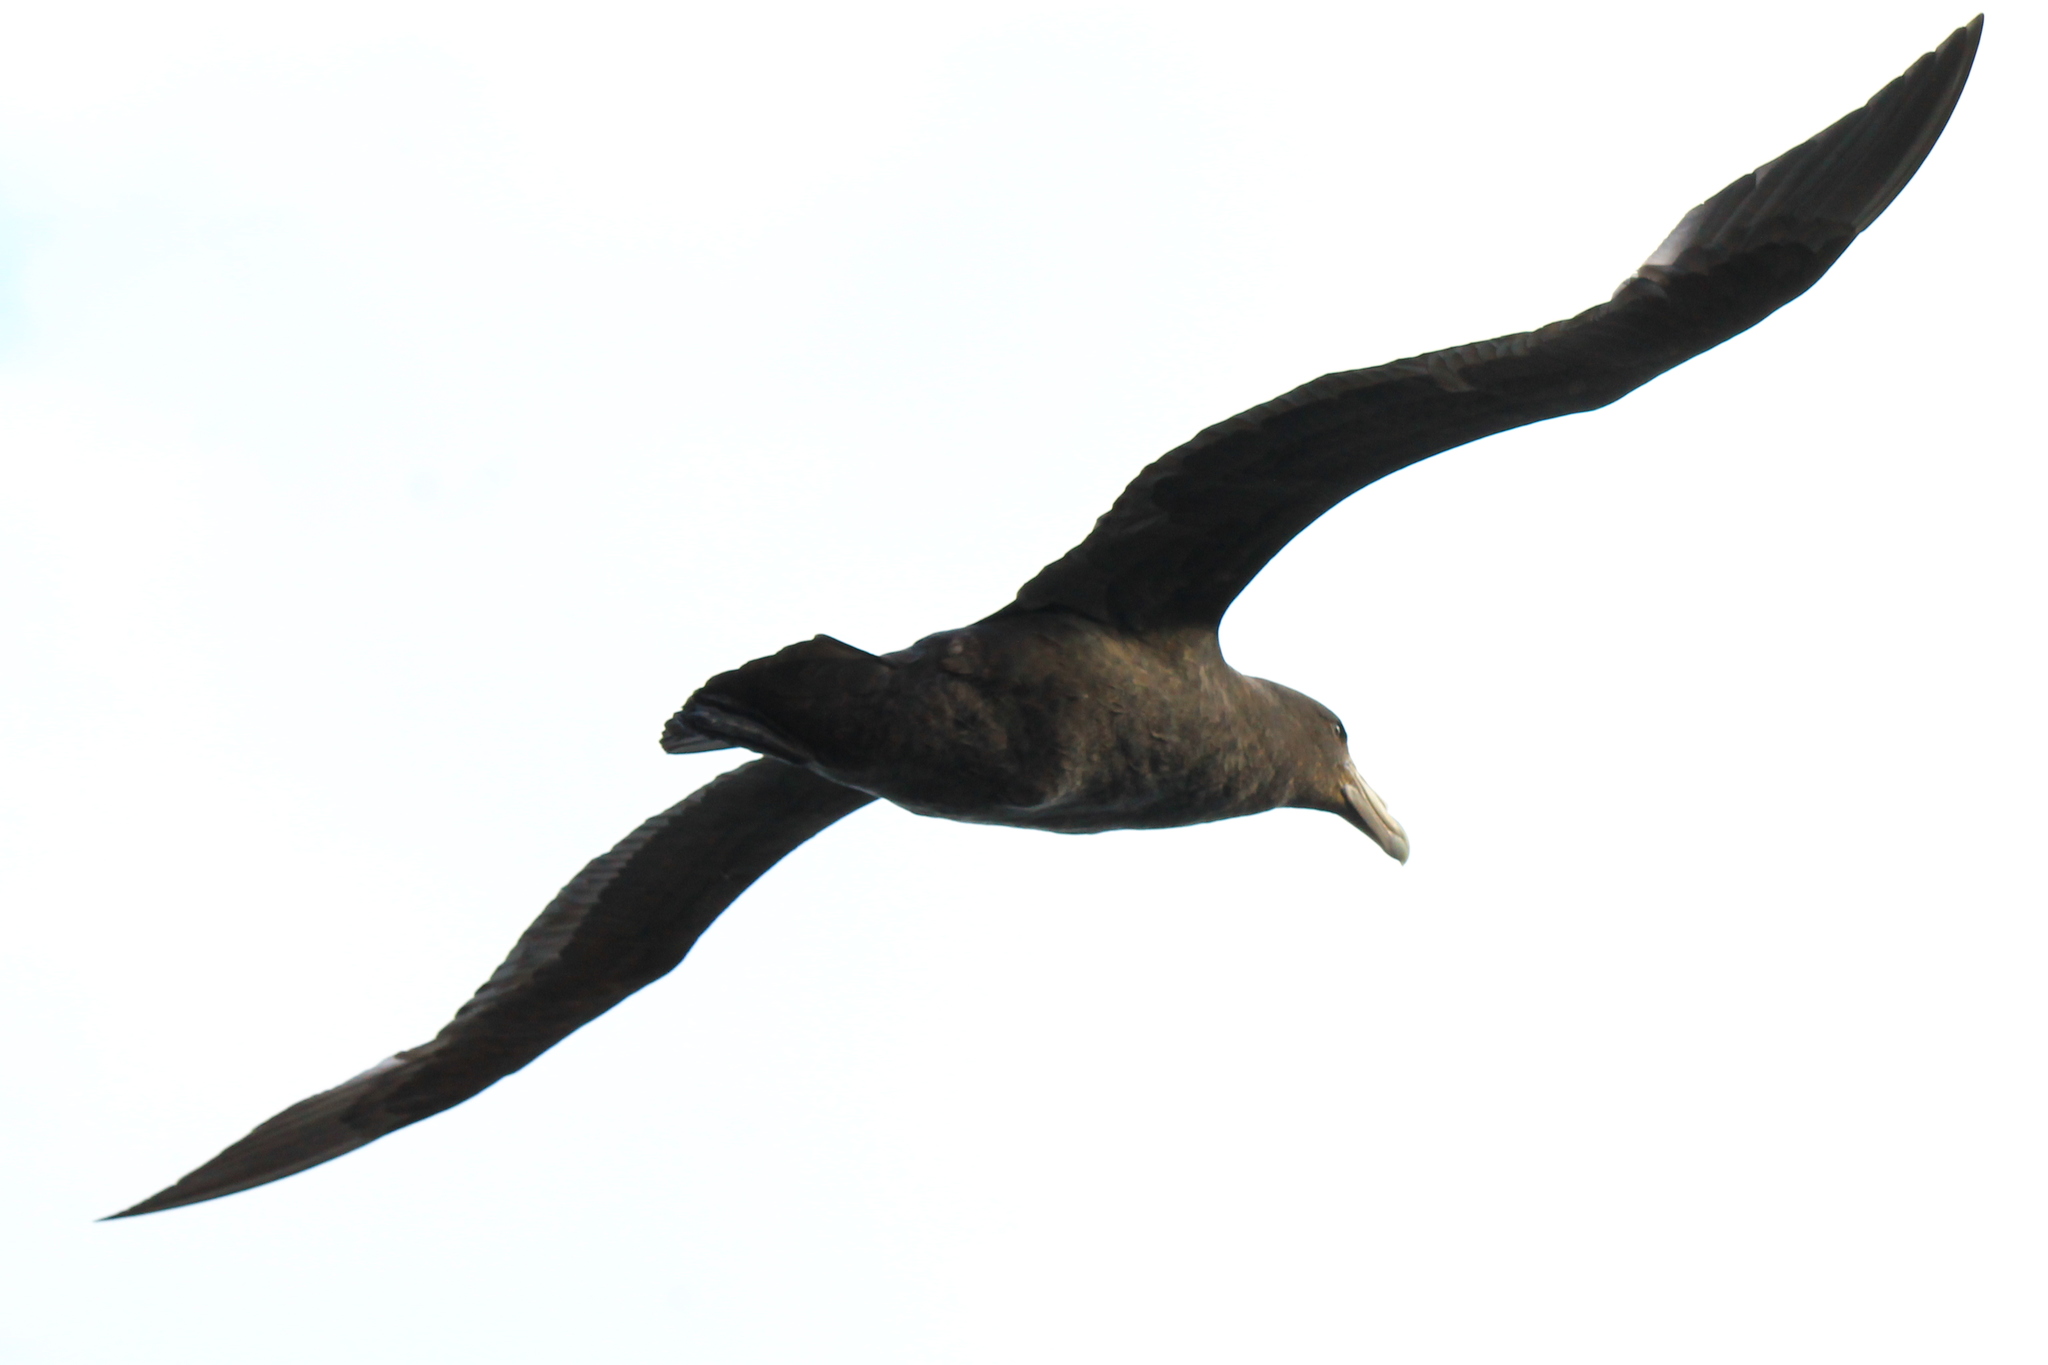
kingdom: Animalia
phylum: Chordata
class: Aves
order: Procellariiformes
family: Procellariidae
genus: Macronectes
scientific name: Macronectes giganteus
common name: Southern giant petrel
